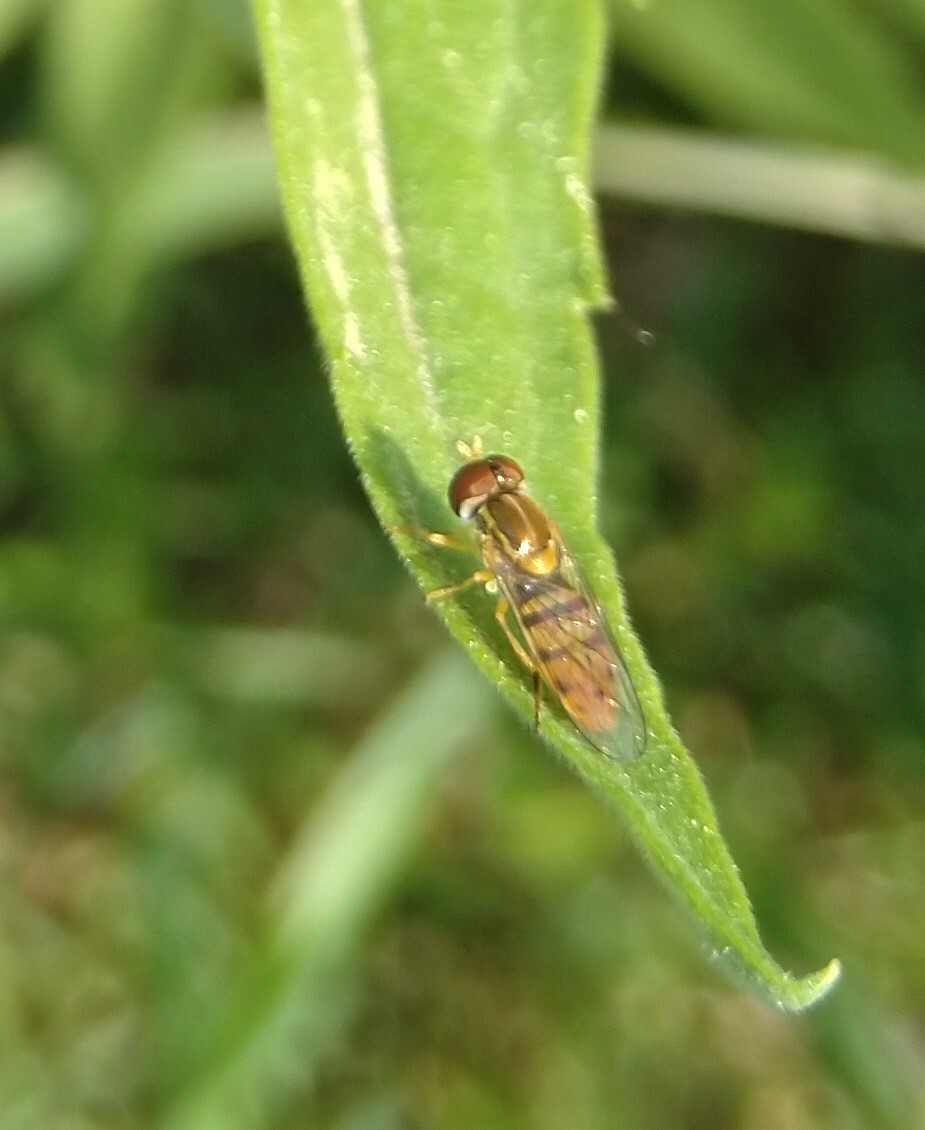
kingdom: Animalia
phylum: Arthropoda
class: Insecta
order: Diptera
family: Syrphidae
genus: Toxomerus
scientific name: Toxomerus marginatus
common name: Syrphid fly
